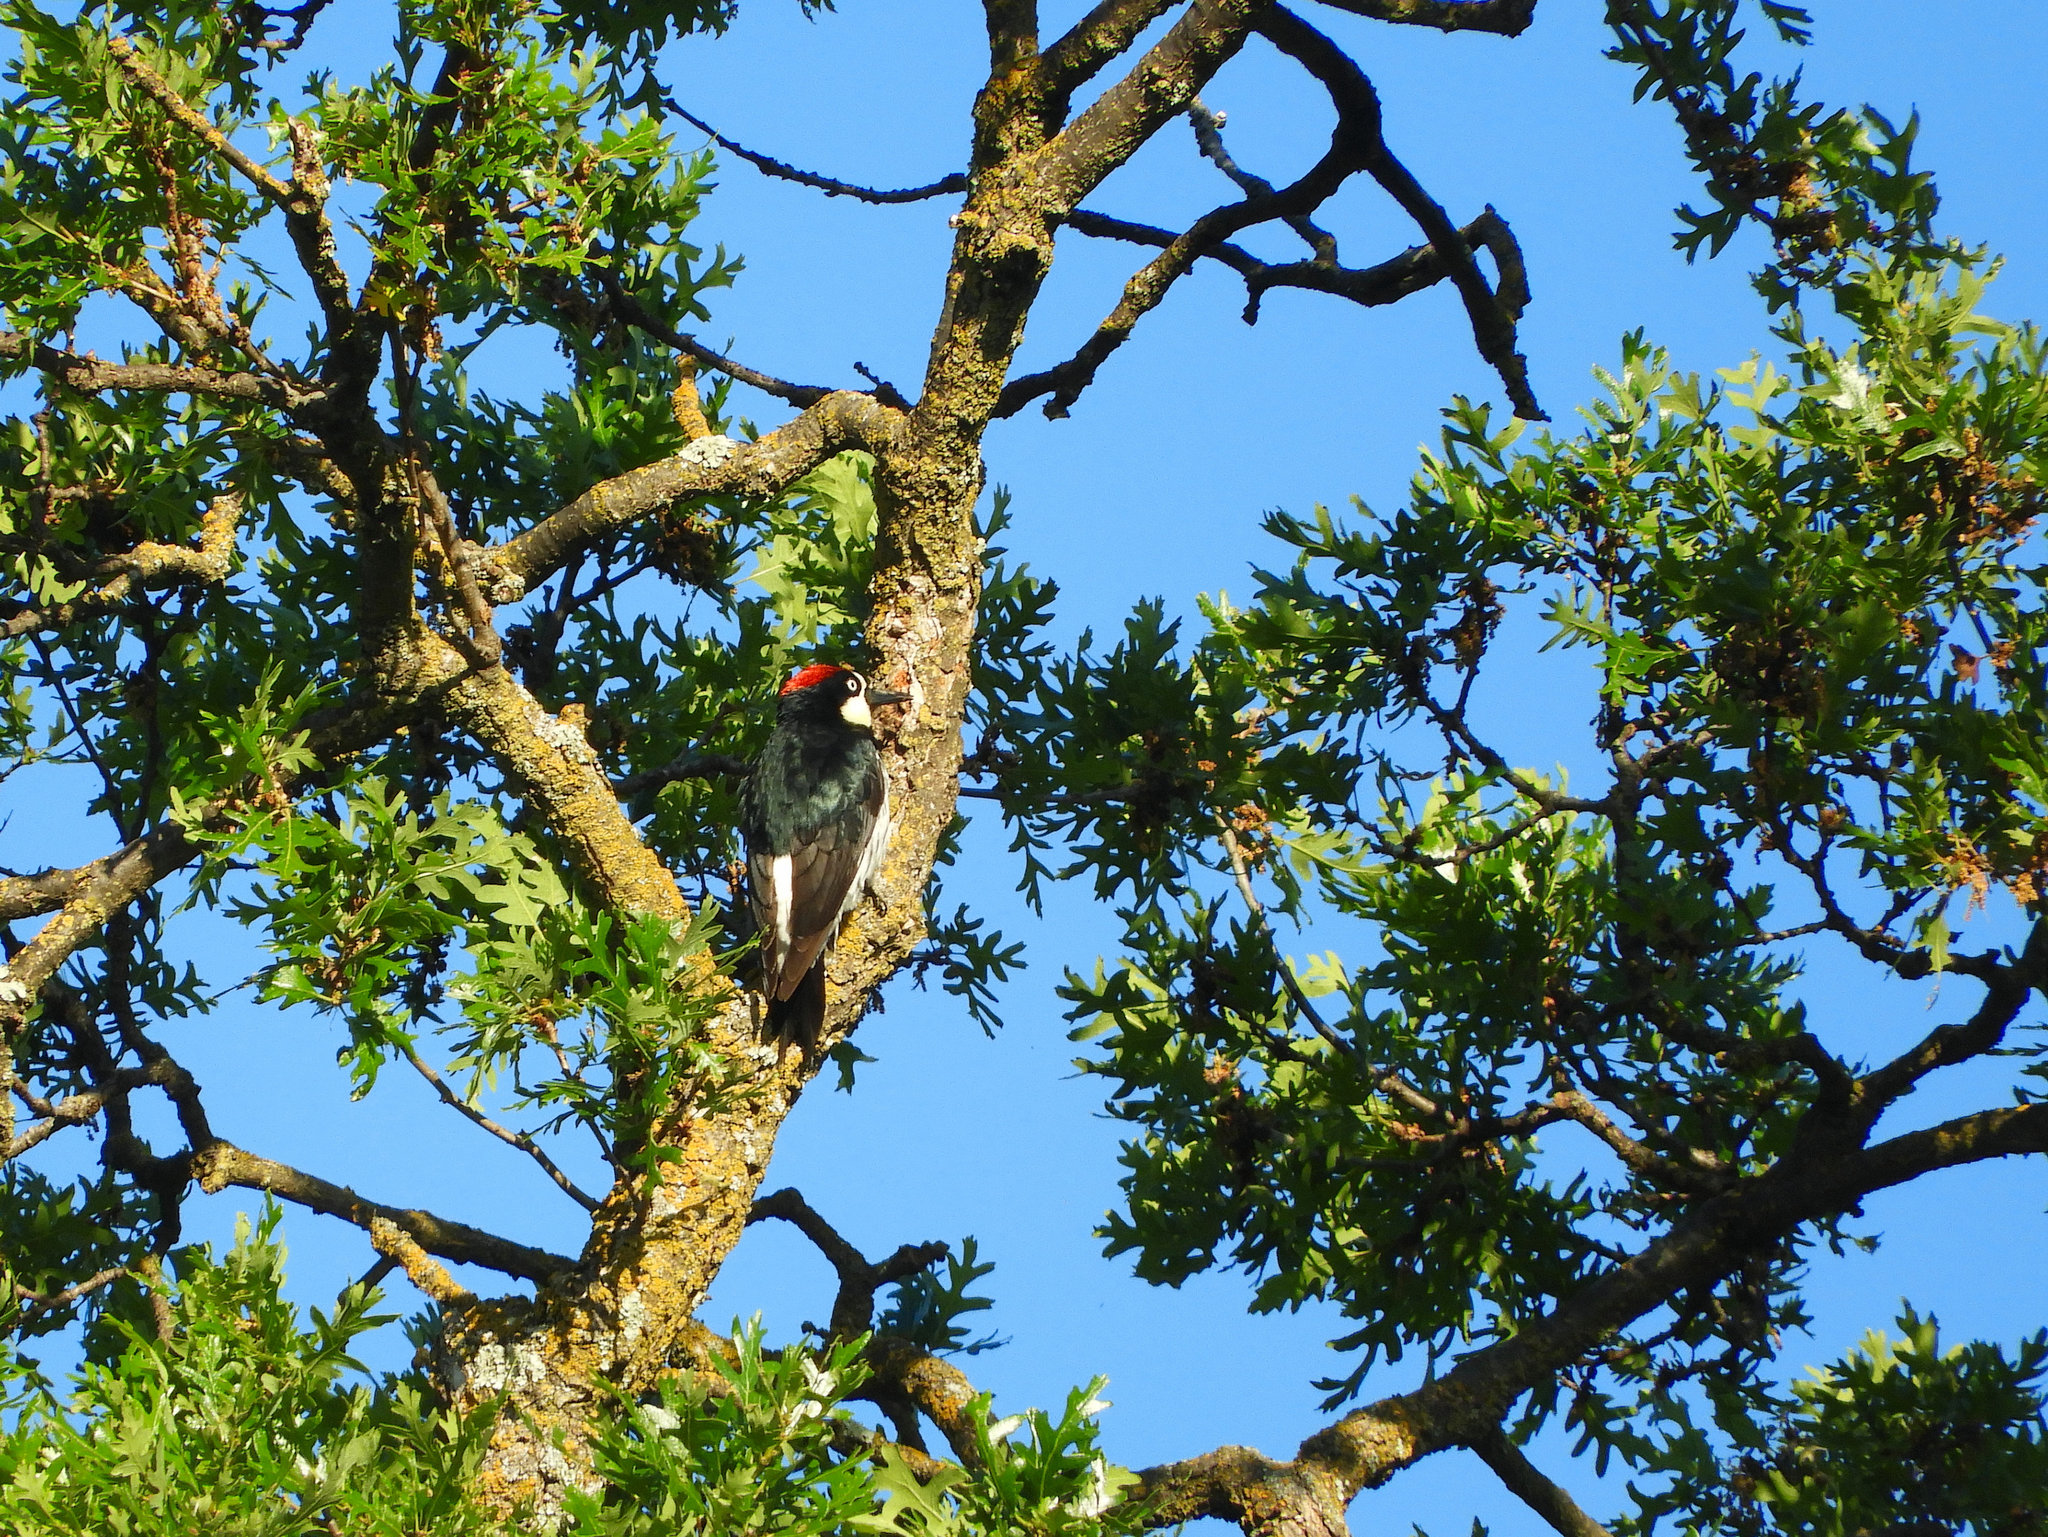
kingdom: Animalia
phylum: Chordata
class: Aves
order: Piciformes
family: Picidae
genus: Melanerpes
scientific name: Melanerpes formicivorus
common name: Acorn woodpecker
